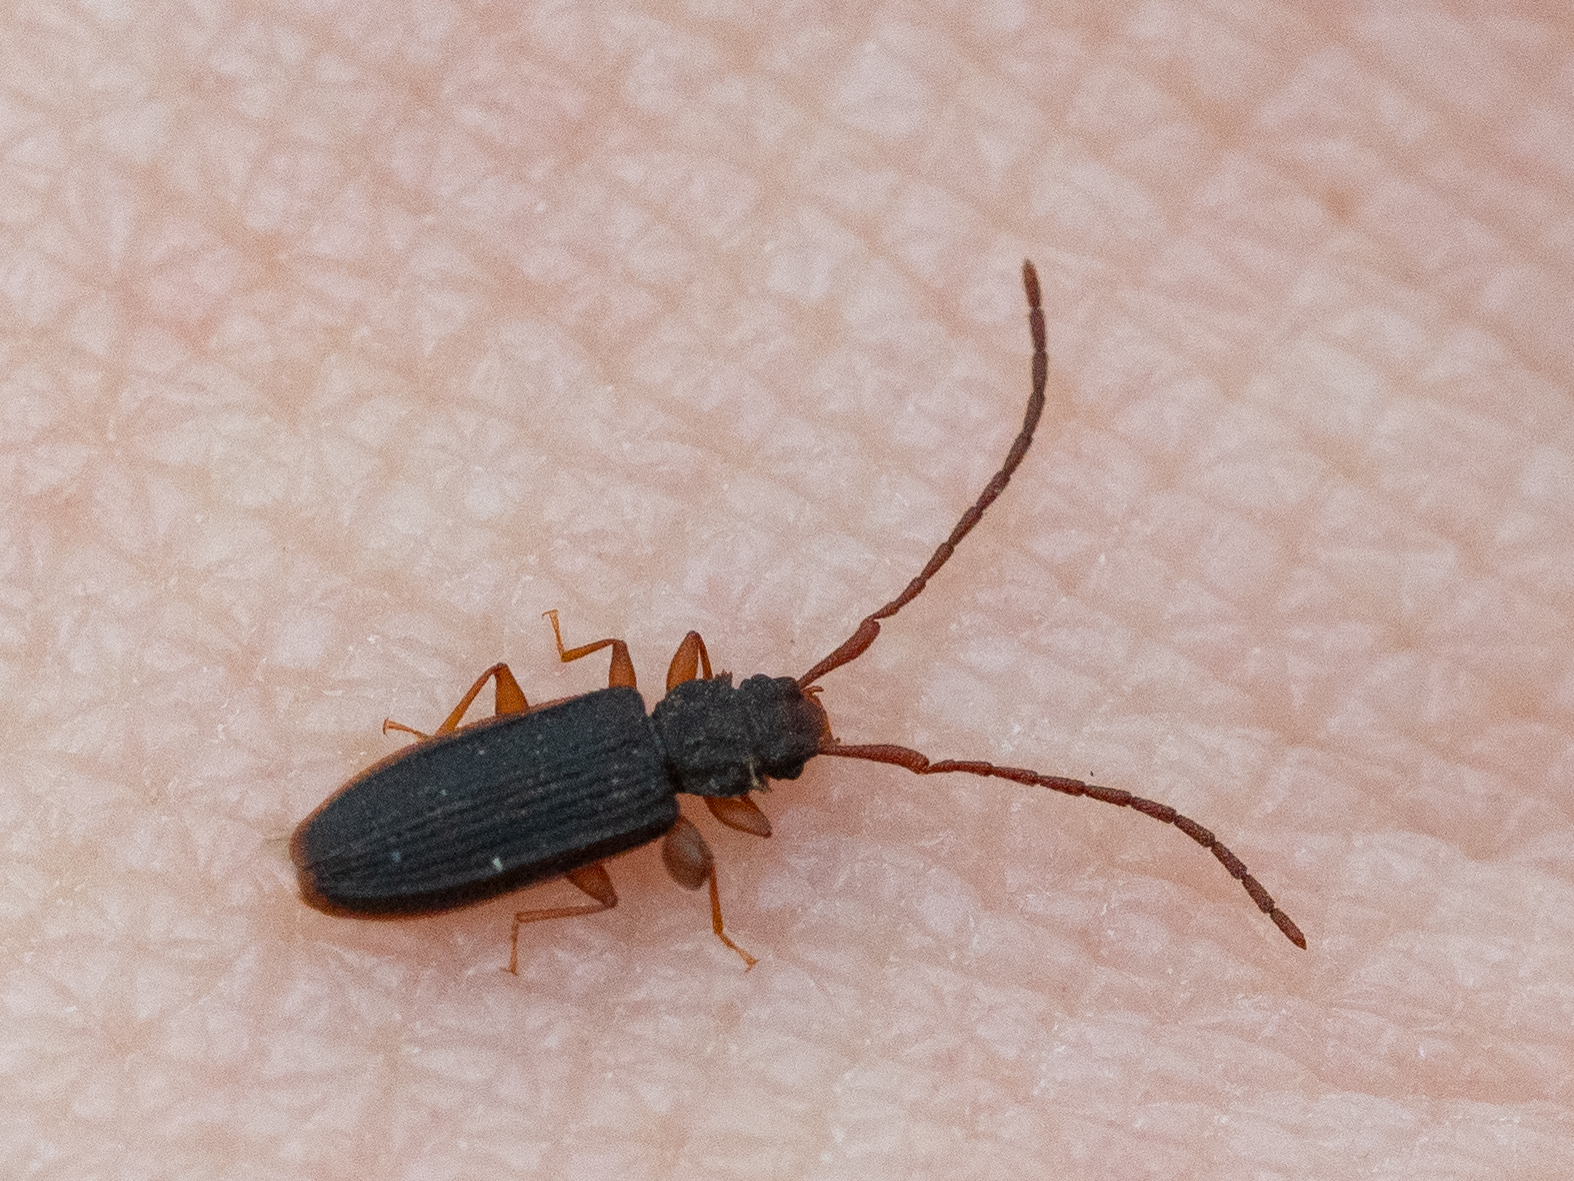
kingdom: Animalia
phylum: Arthropoda
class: Insecta
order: Coleoptera
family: Silvanidae
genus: Uleiota
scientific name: Uleiota planatus
